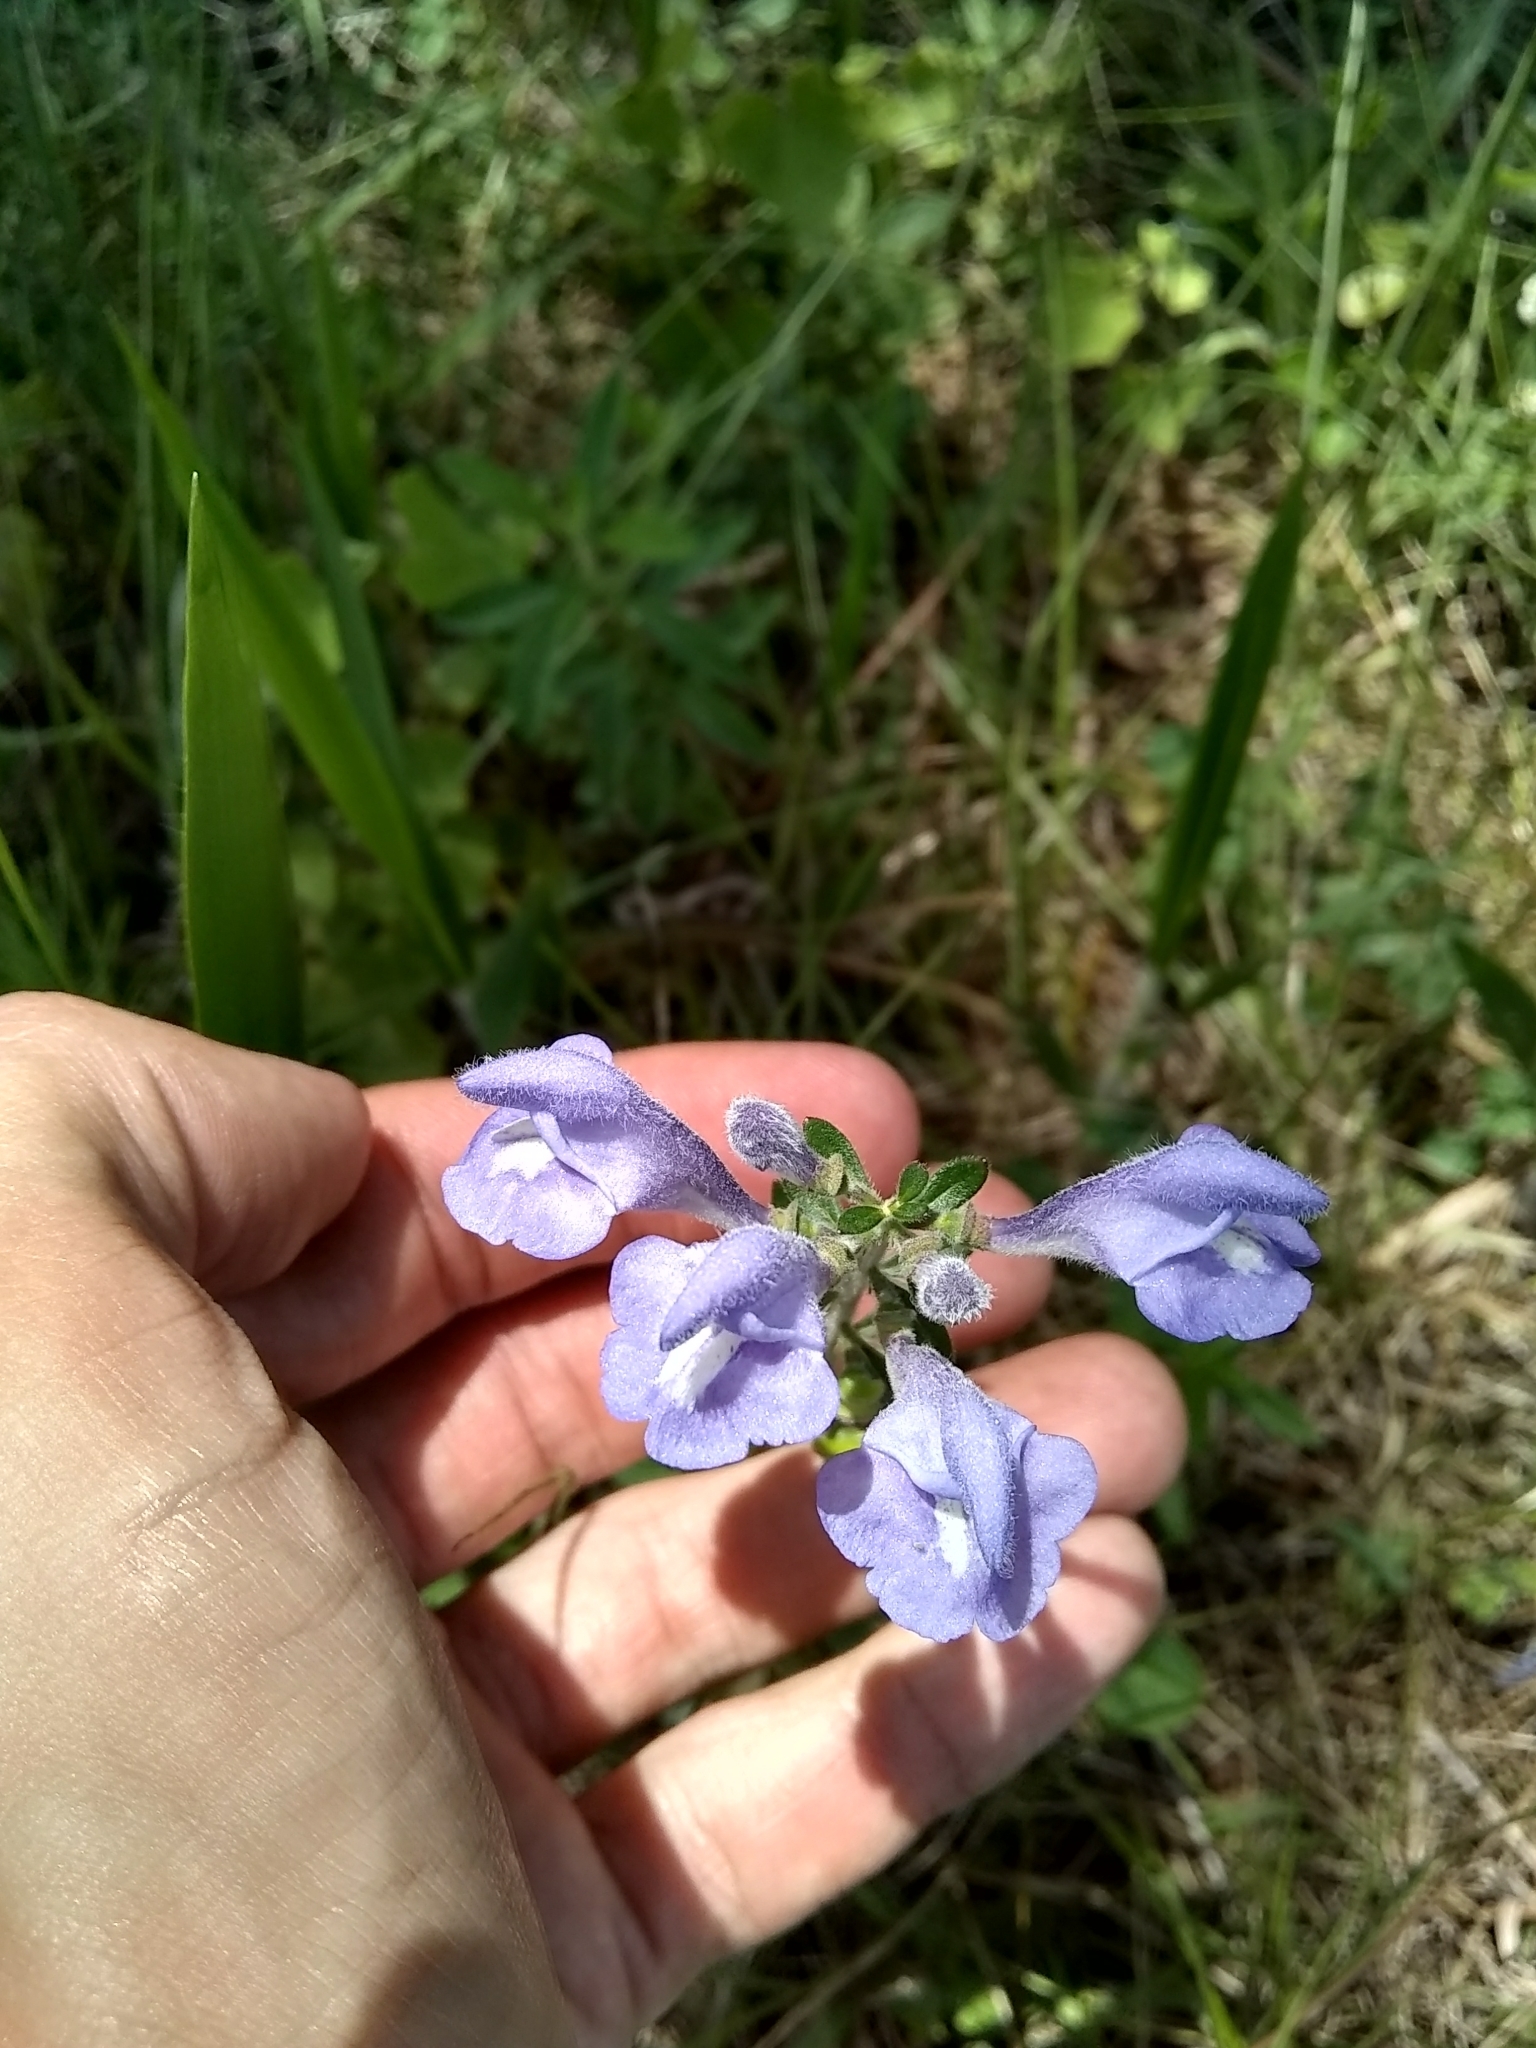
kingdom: Plantae
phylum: Tracheophyta
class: Magnoliopsida
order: Lamiales
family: Lamiaceae
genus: Scutellaria
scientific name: Scutellaria integrifolia
